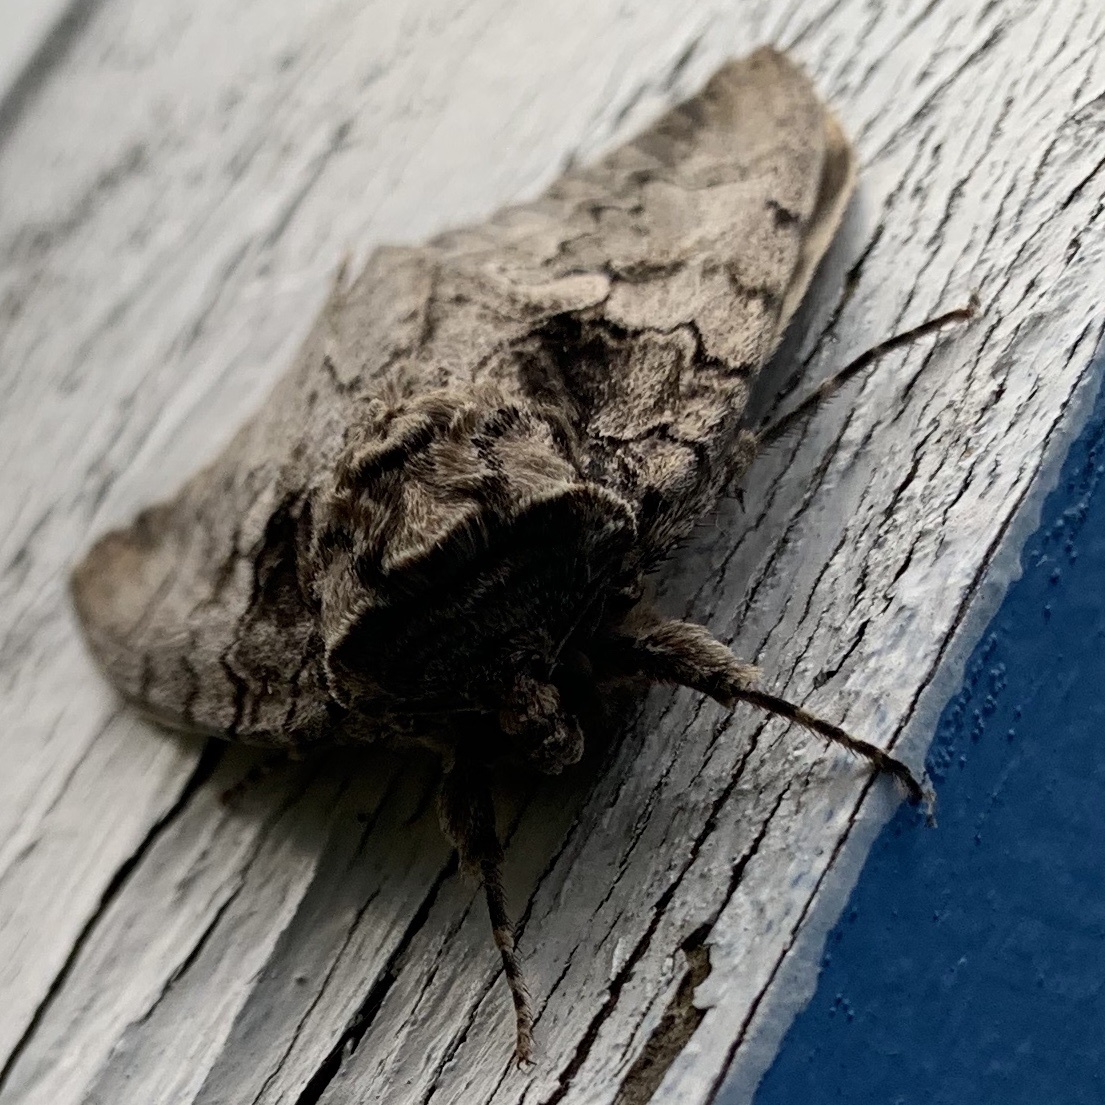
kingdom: Animalia
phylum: Arthropoda
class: Insecta
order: Lepidoptera
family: Erebidae
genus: Catocala
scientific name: Catocala amatrix
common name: Sweetheart underwing
